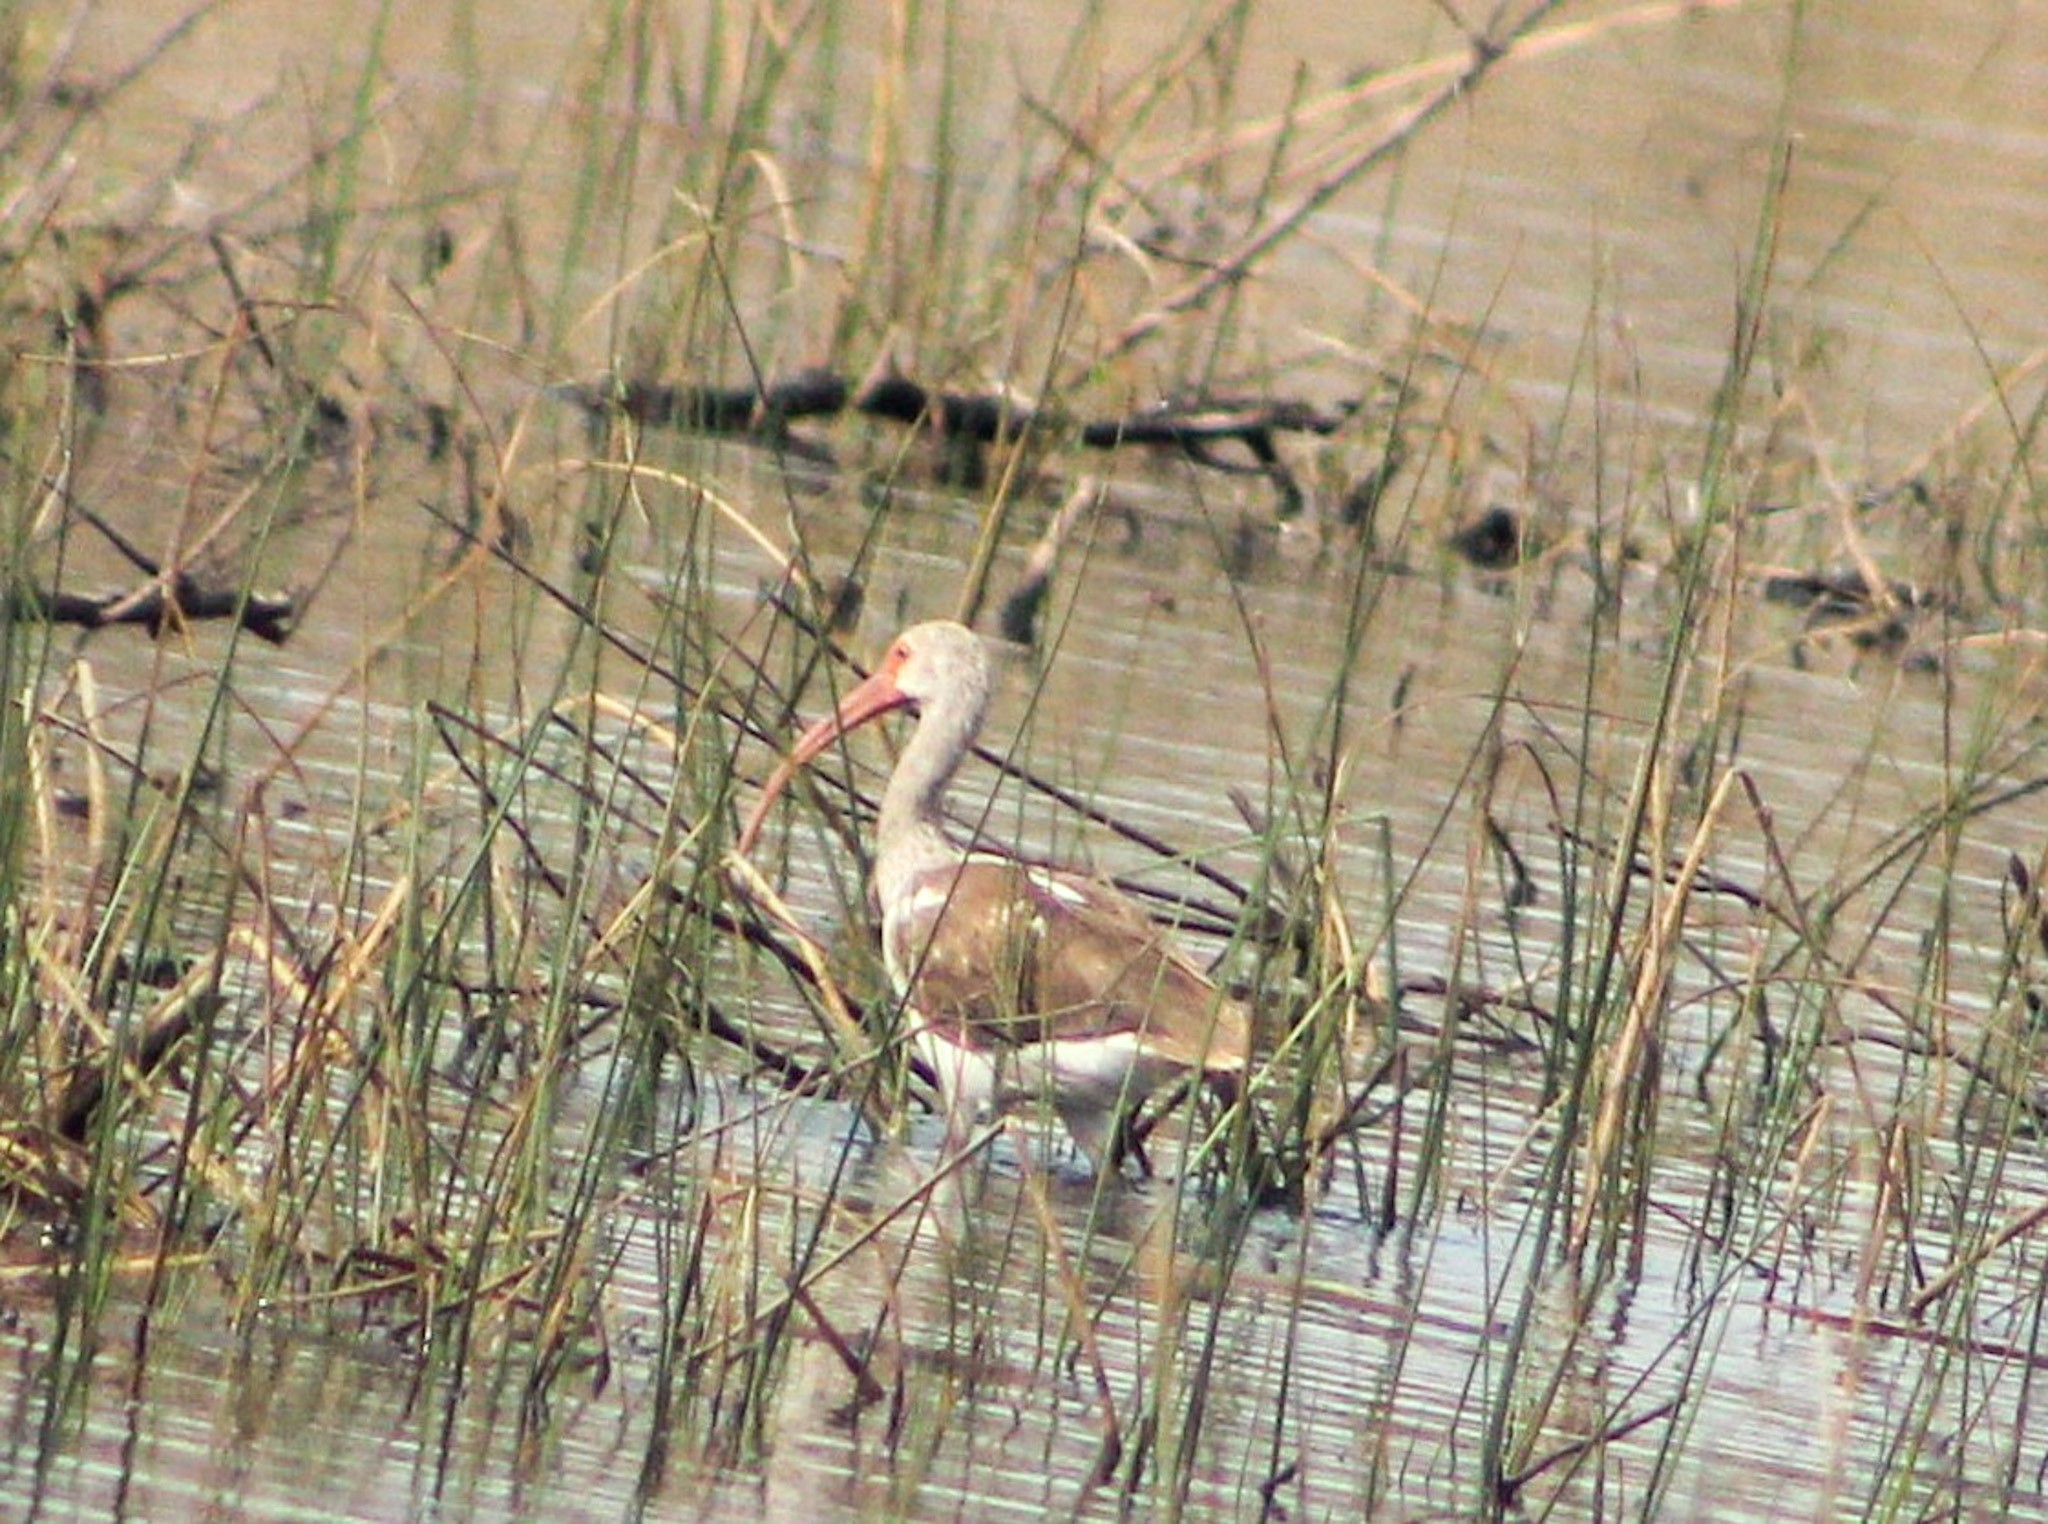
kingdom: Animalia
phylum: Chordata
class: Aves
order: Pelecaniformes
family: Threskiornithidae
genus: Eudocimus
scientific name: Eudocimus albus
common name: White ibis
